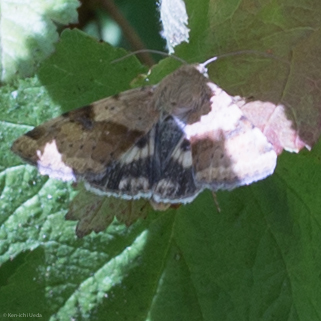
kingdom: Animalia
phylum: Arthropoda
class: Insecta
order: Lepidoptera
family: Noctuidae
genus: Heliothis
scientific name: Heliothis phloxiphaga
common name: Darker spotted straw moth
